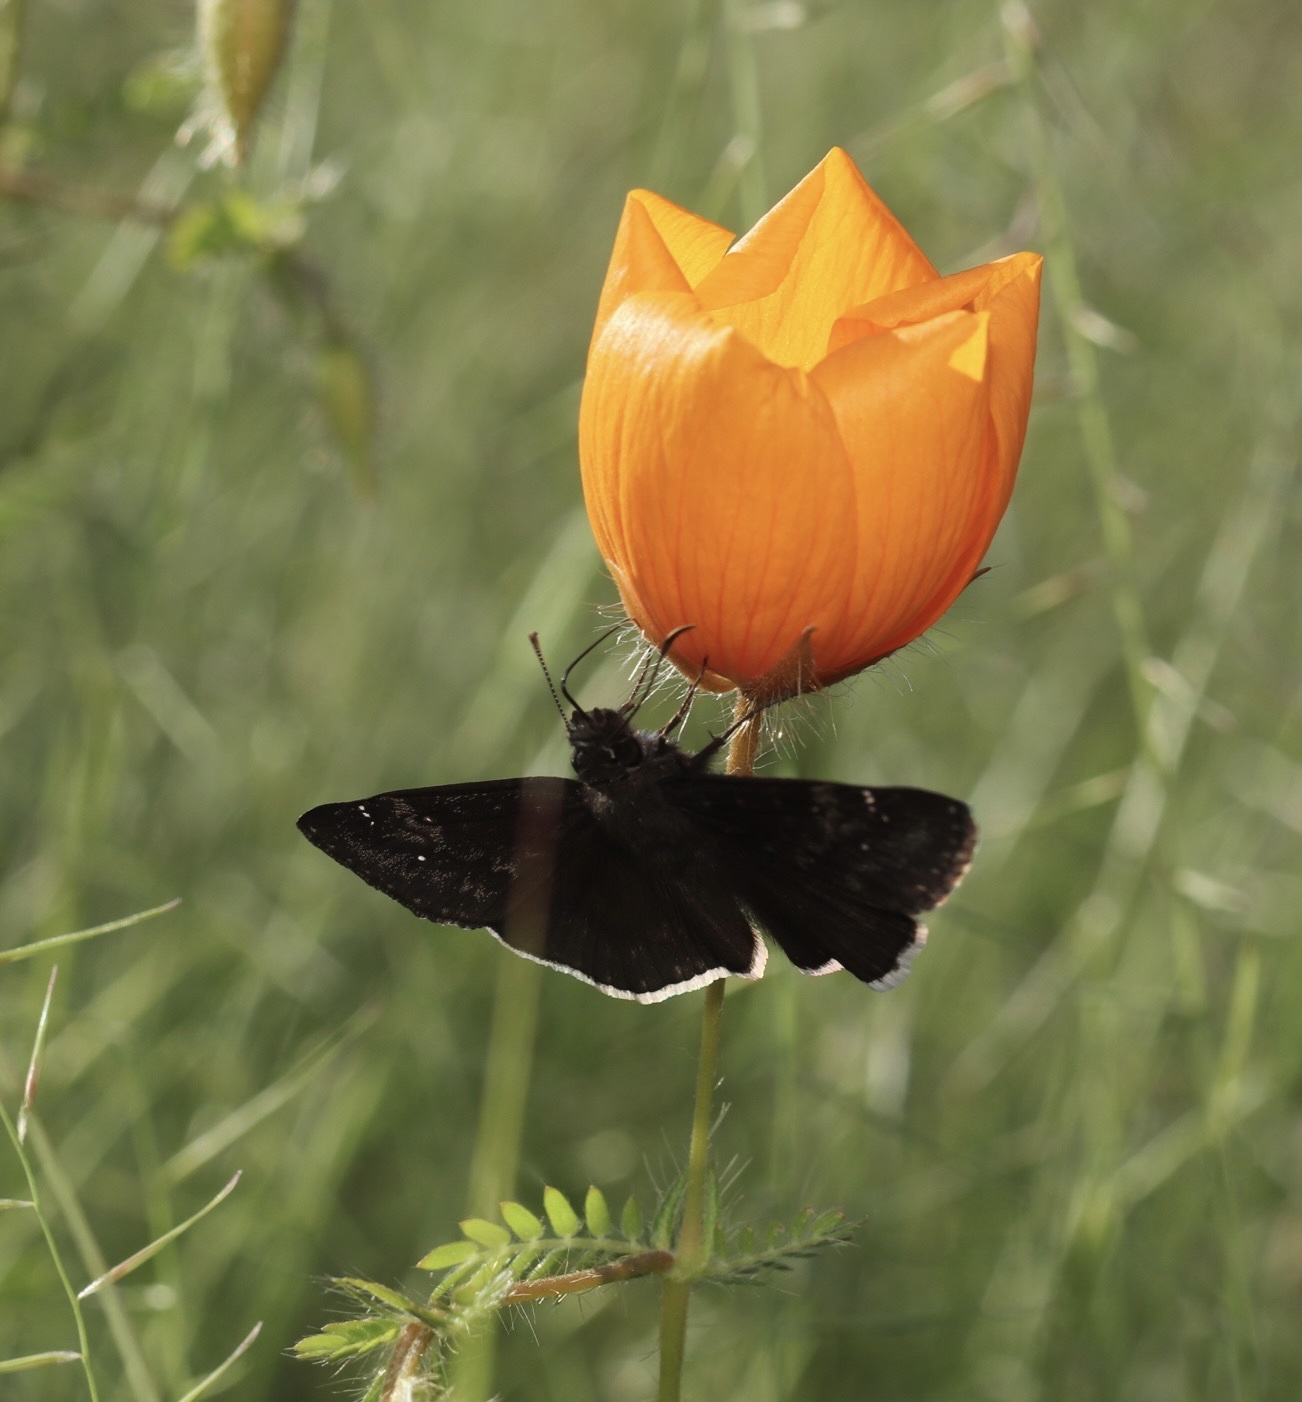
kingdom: Animalia
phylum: Arthropoda
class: Insecta
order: Lepidoptera
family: Hesperiidae
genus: Erynnis
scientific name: Erynnis funeralis
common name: Funereal duskywing
